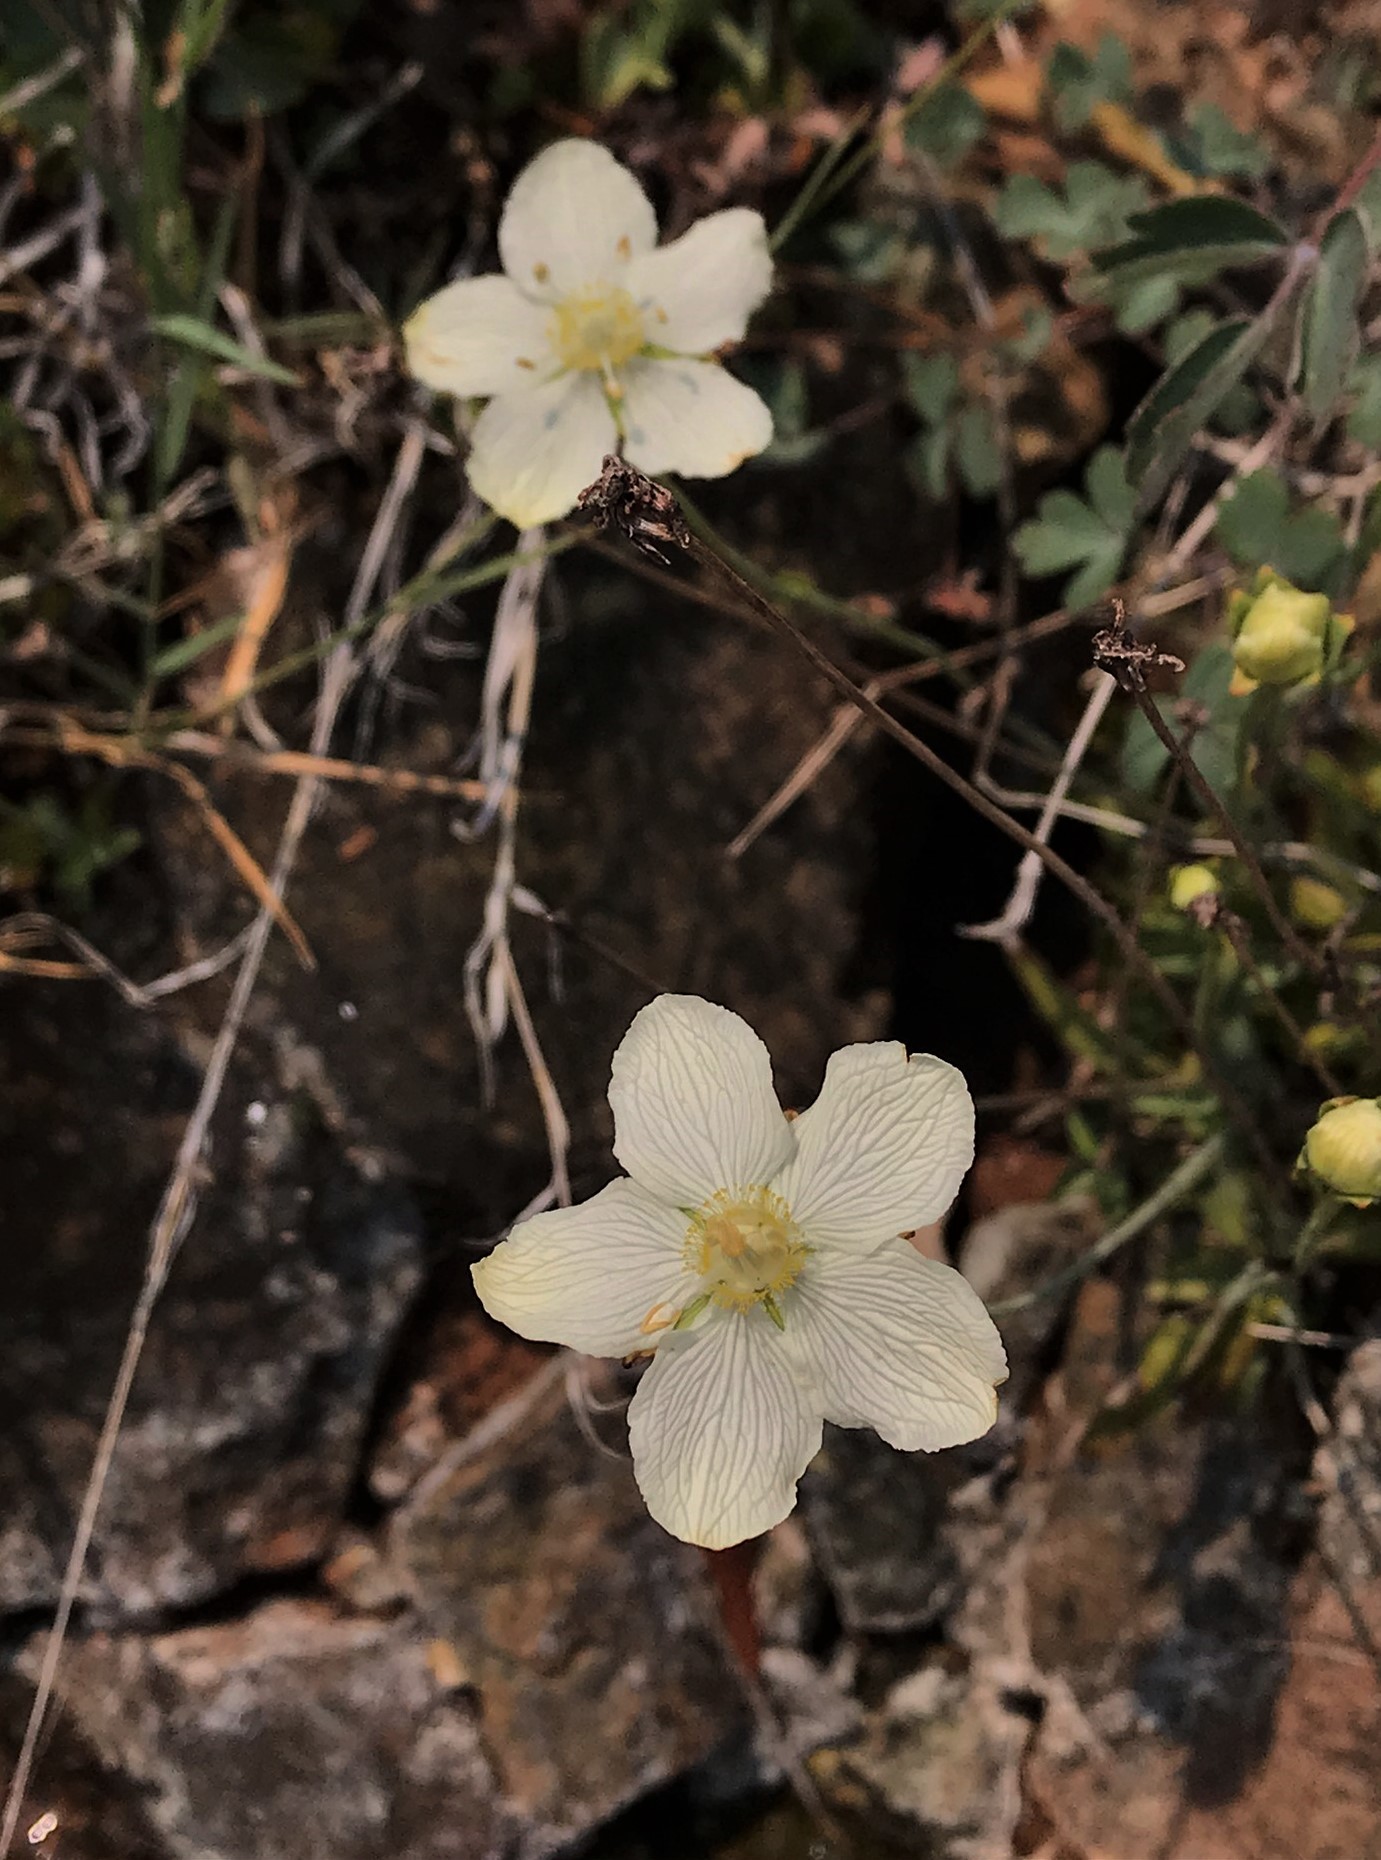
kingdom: Plantae
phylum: Tracheophyta
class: Magnoliopsida
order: Celastrales
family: Parnassiaceae
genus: Parnassia
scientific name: Parnassia palustris
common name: Grass-of-parnassus
